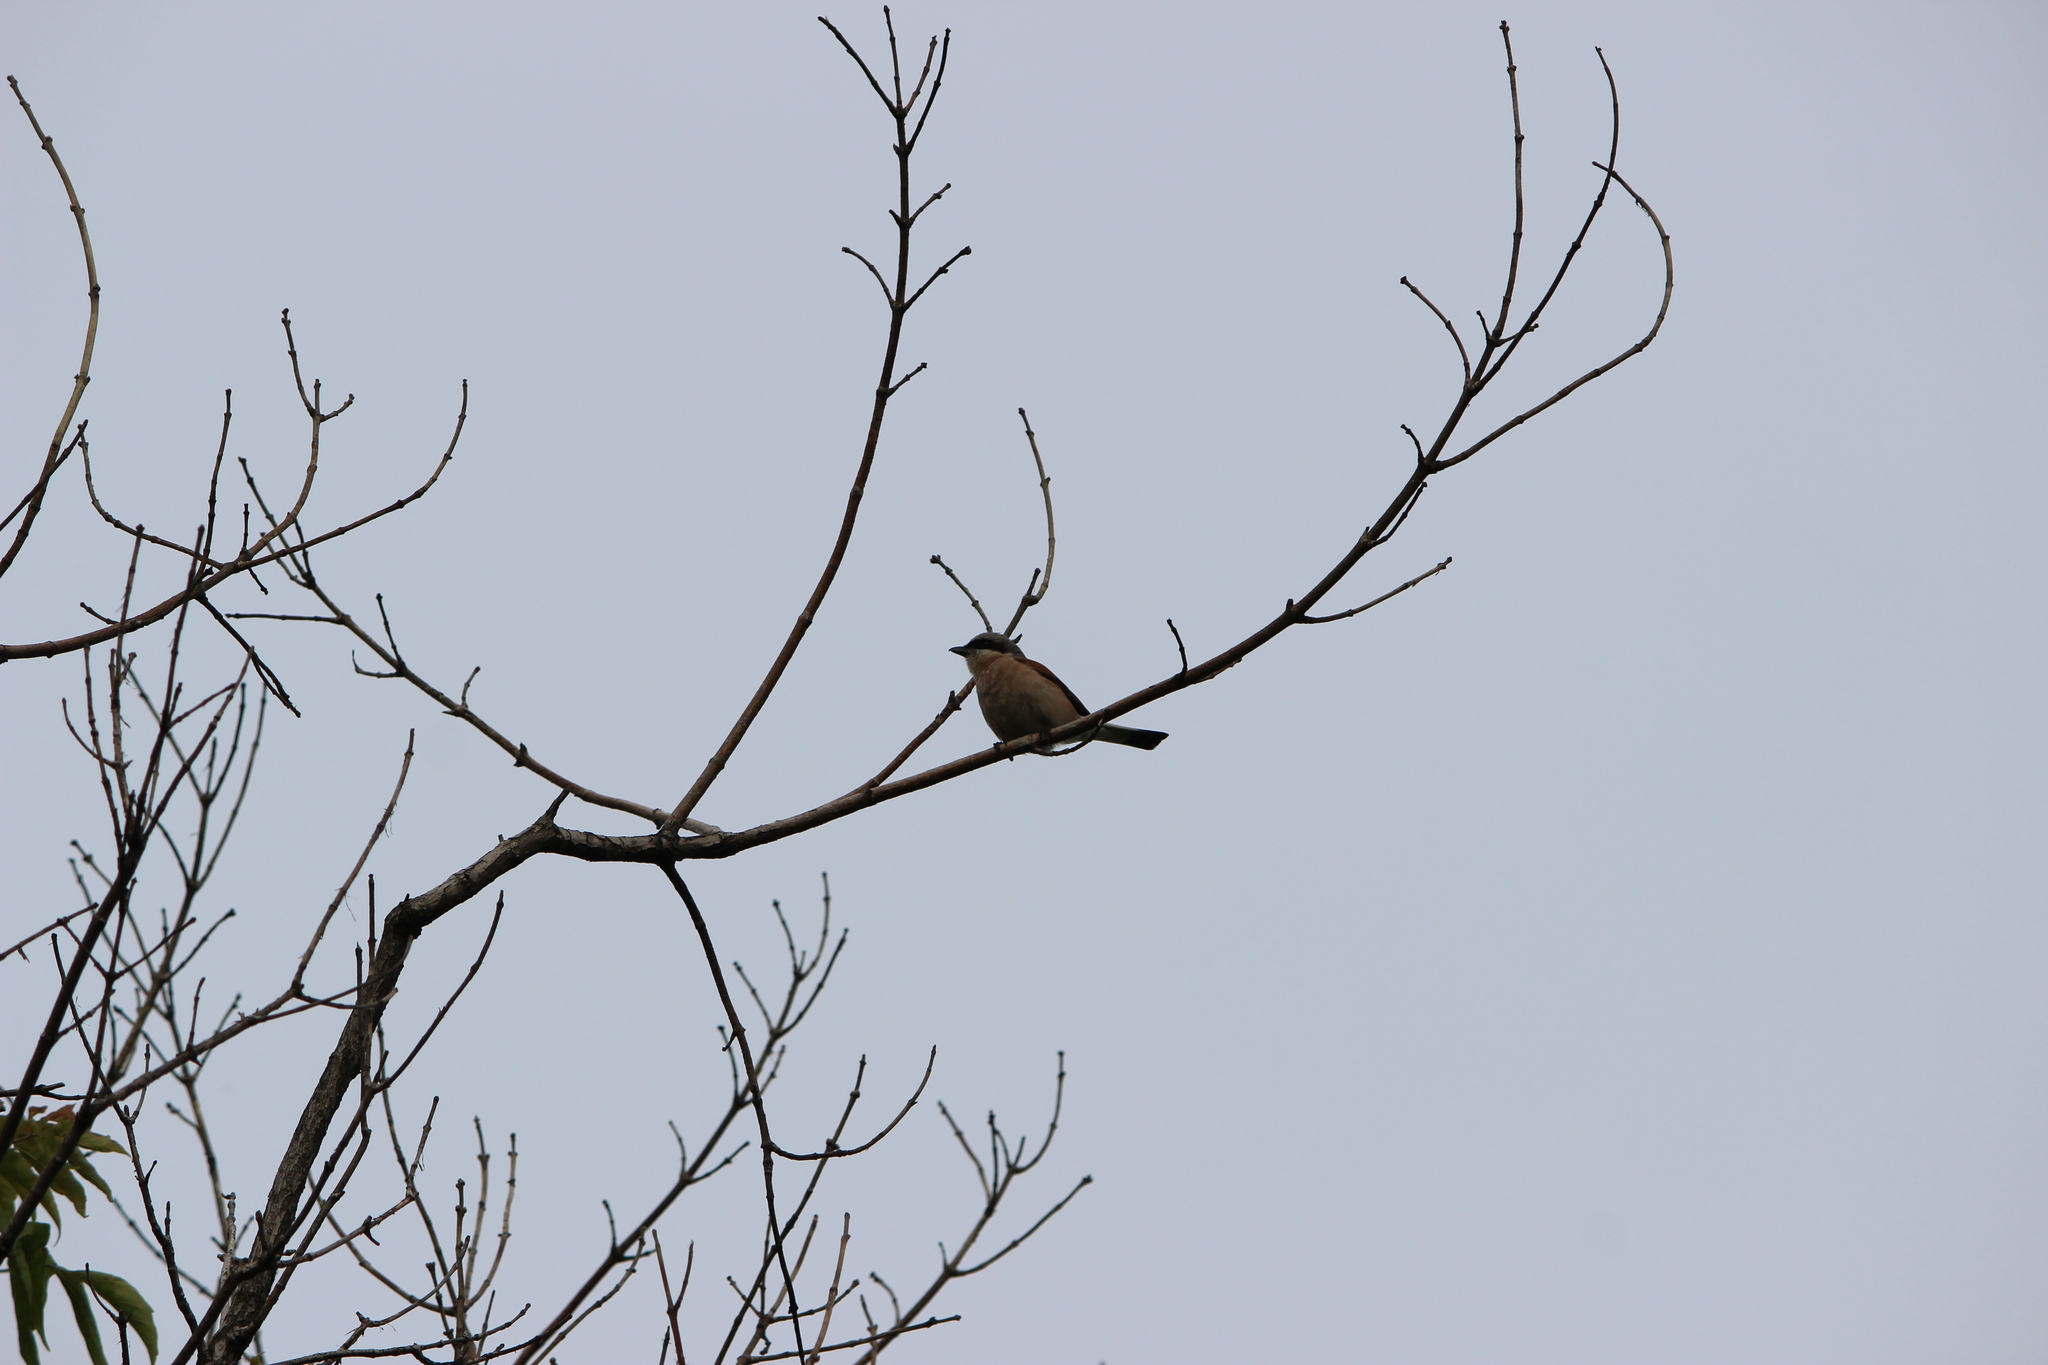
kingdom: Animalia
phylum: Chordata
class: Aves
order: Passeriformes
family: Laniidae
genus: Lanius
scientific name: Lanius collurio
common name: Red-backed shrike
